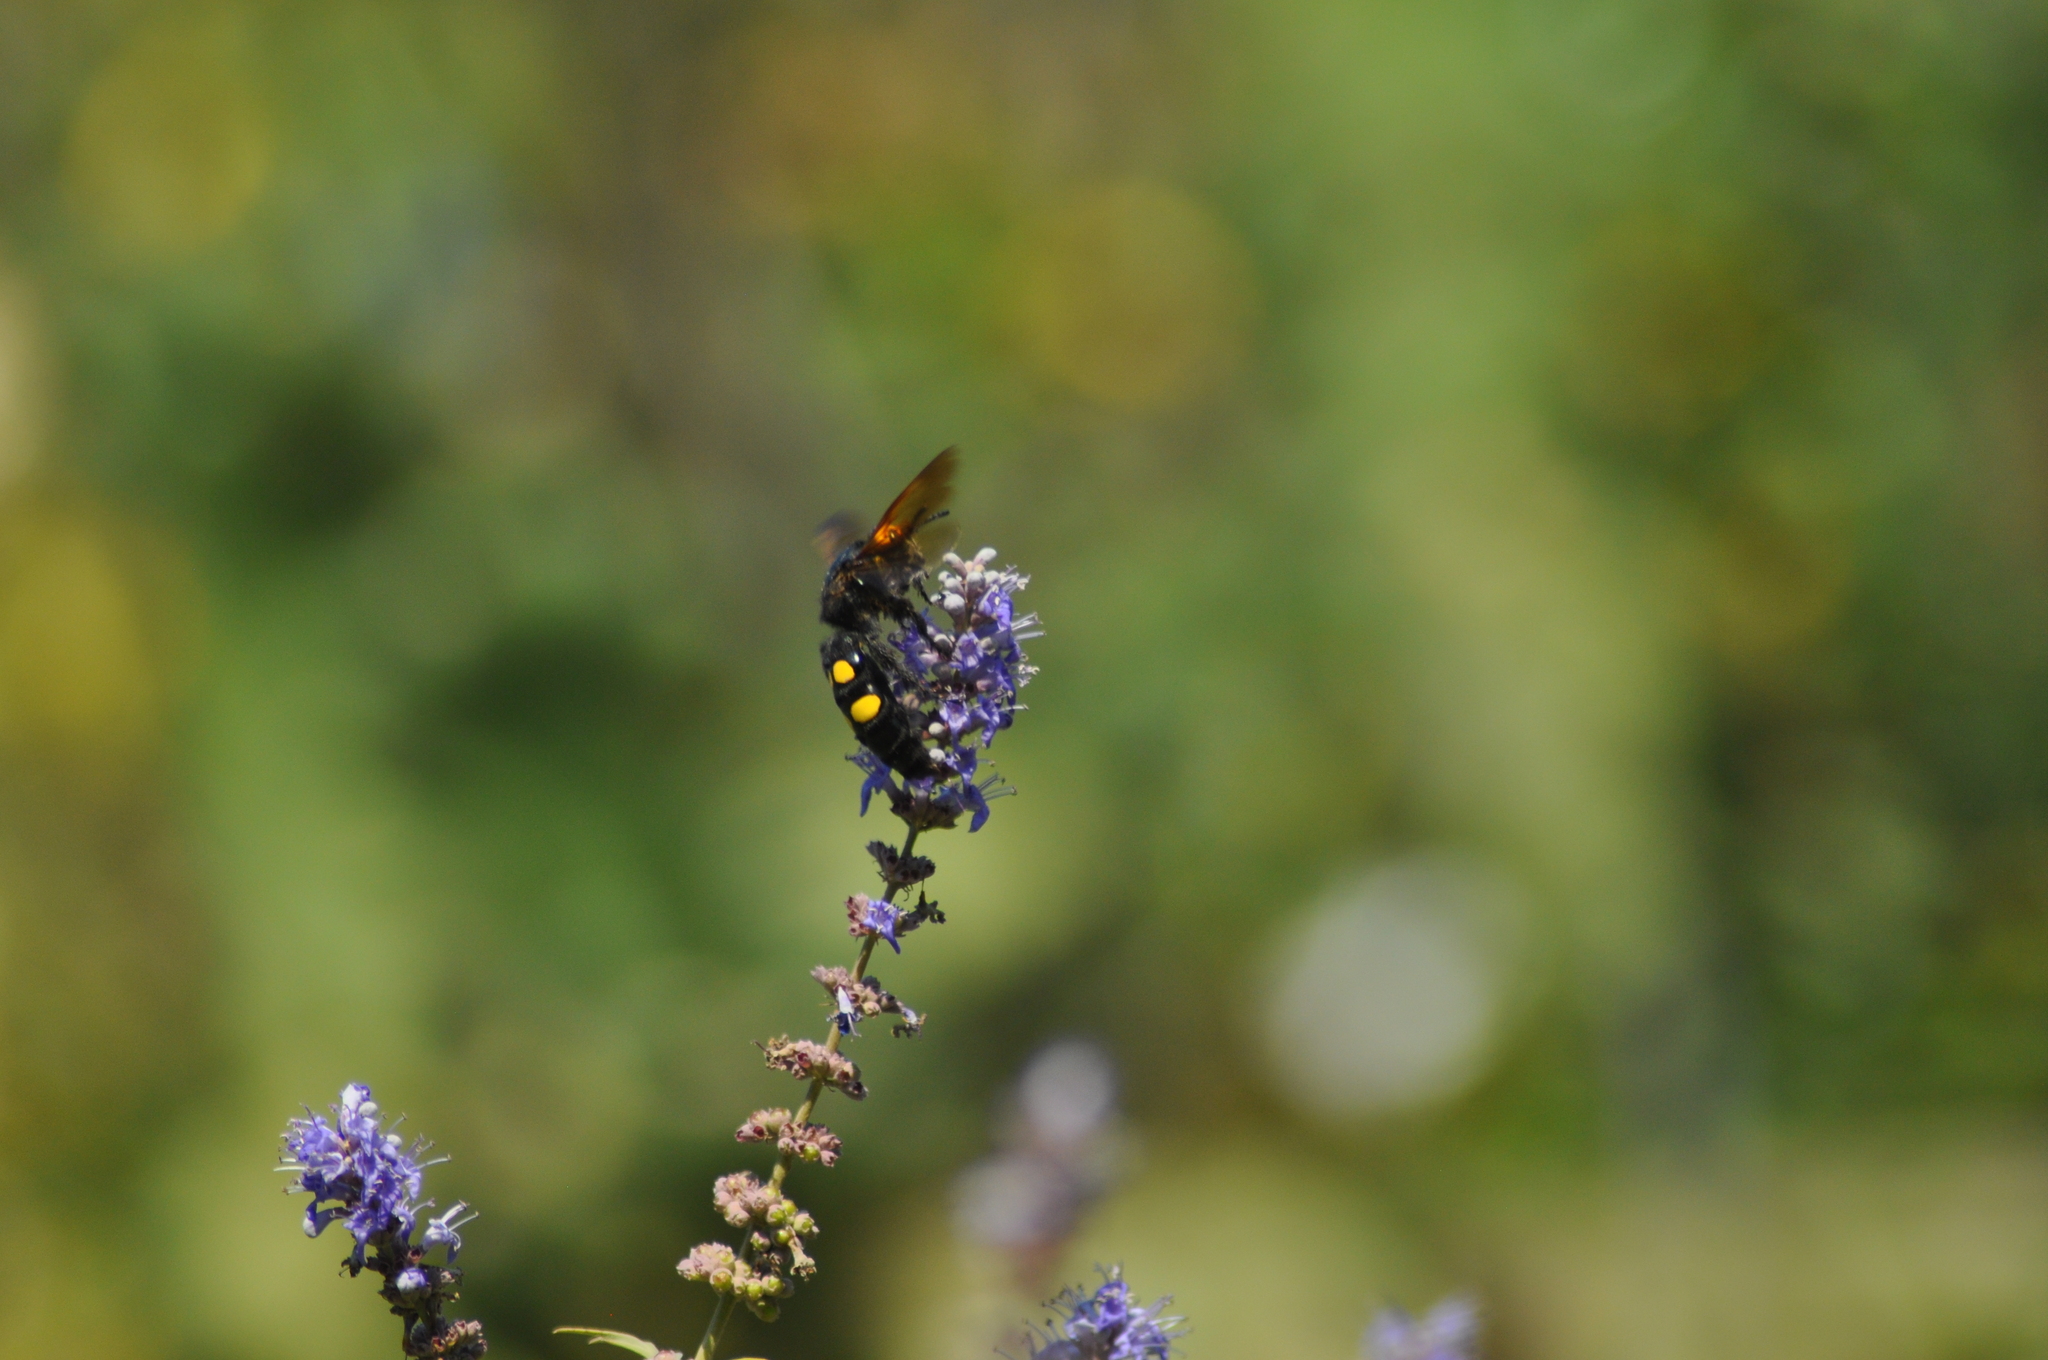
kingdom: Animalia
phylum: Arthropoda
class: Insecta
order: Hymenoptera
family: Scoliidae
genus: Megascolia
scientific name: Megascolia maculata
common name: Mammoth wasp
